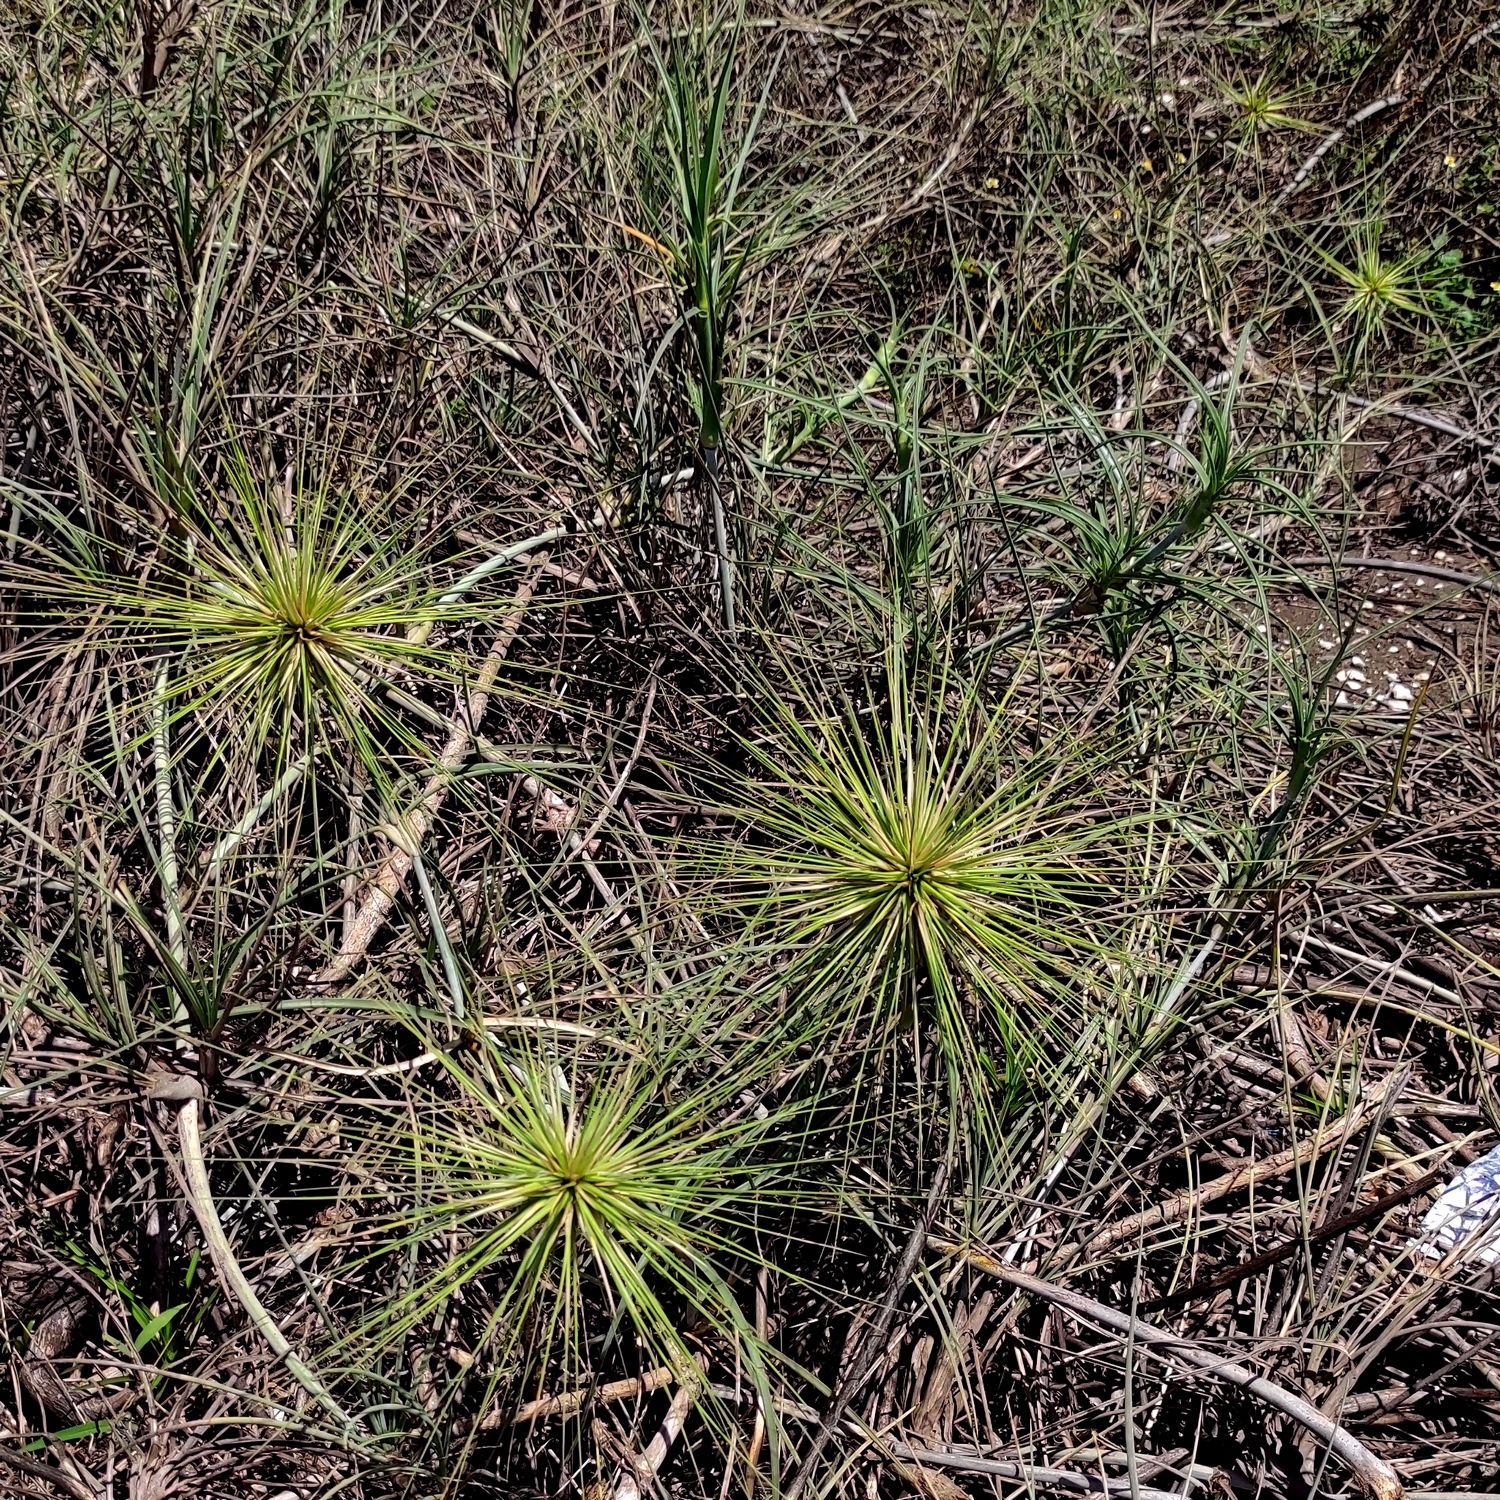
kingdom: Plantae
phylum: Tracheophyta
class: Liliopsida
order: Poales
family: Poaceae
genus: Spinifex
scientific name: Spinifex littoreus
